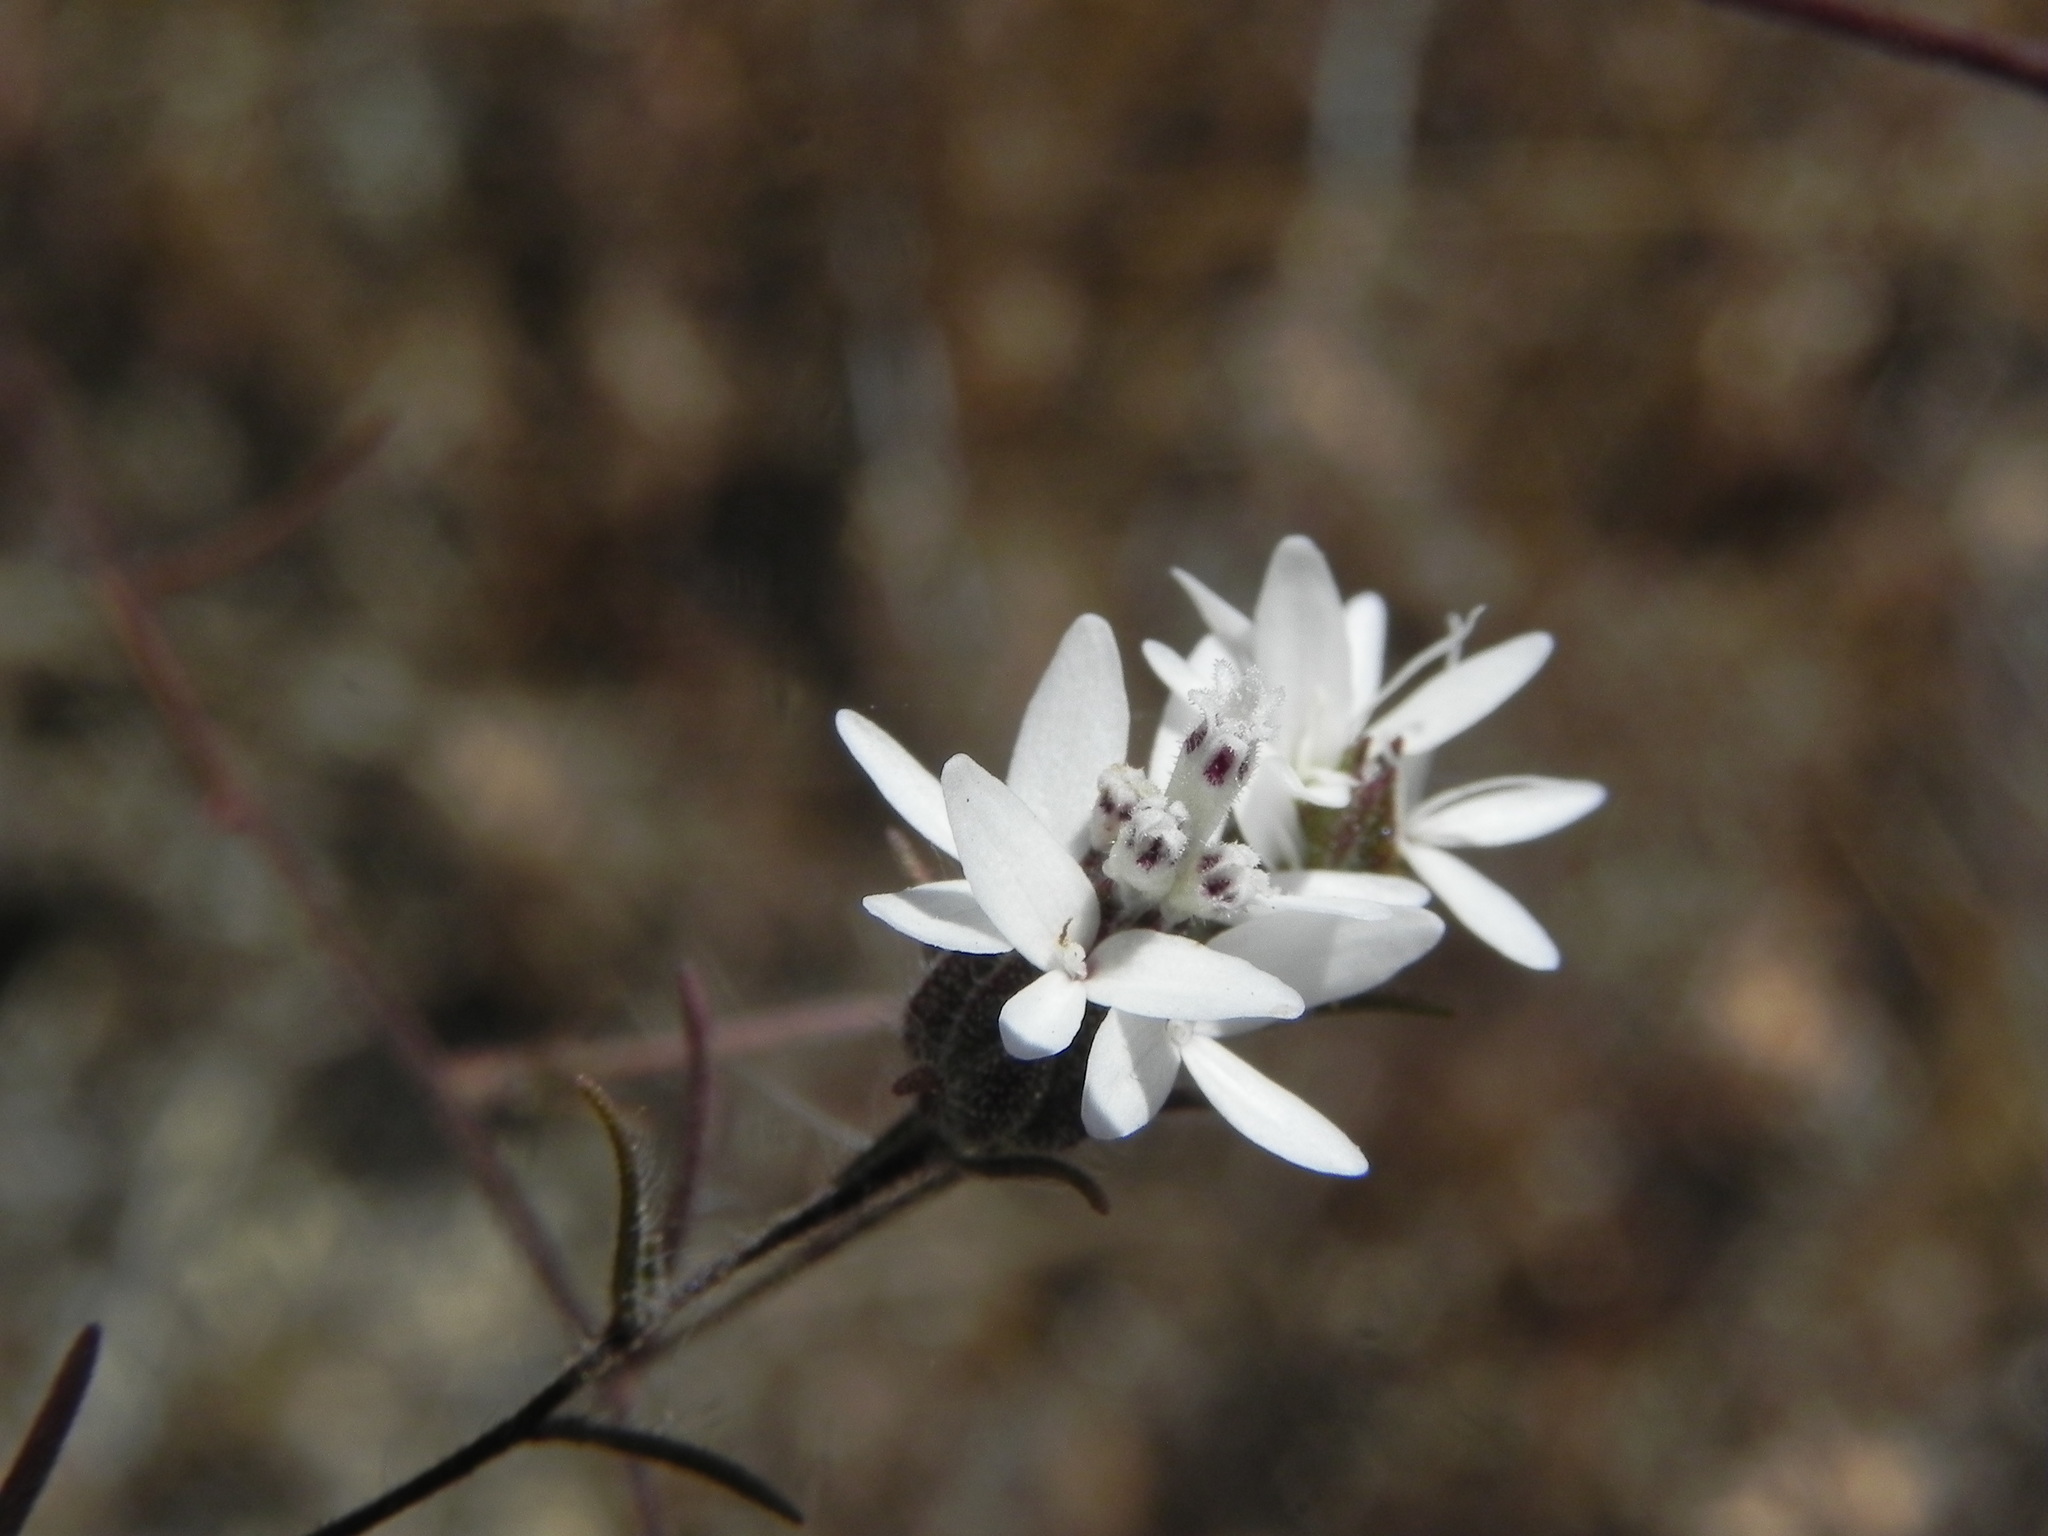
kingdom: Plantae
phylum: Tracheophyta
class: Magnoliopsida
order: Asterales
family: Asteraceae
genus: Osmadenia
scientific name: Osmadenia tenella
